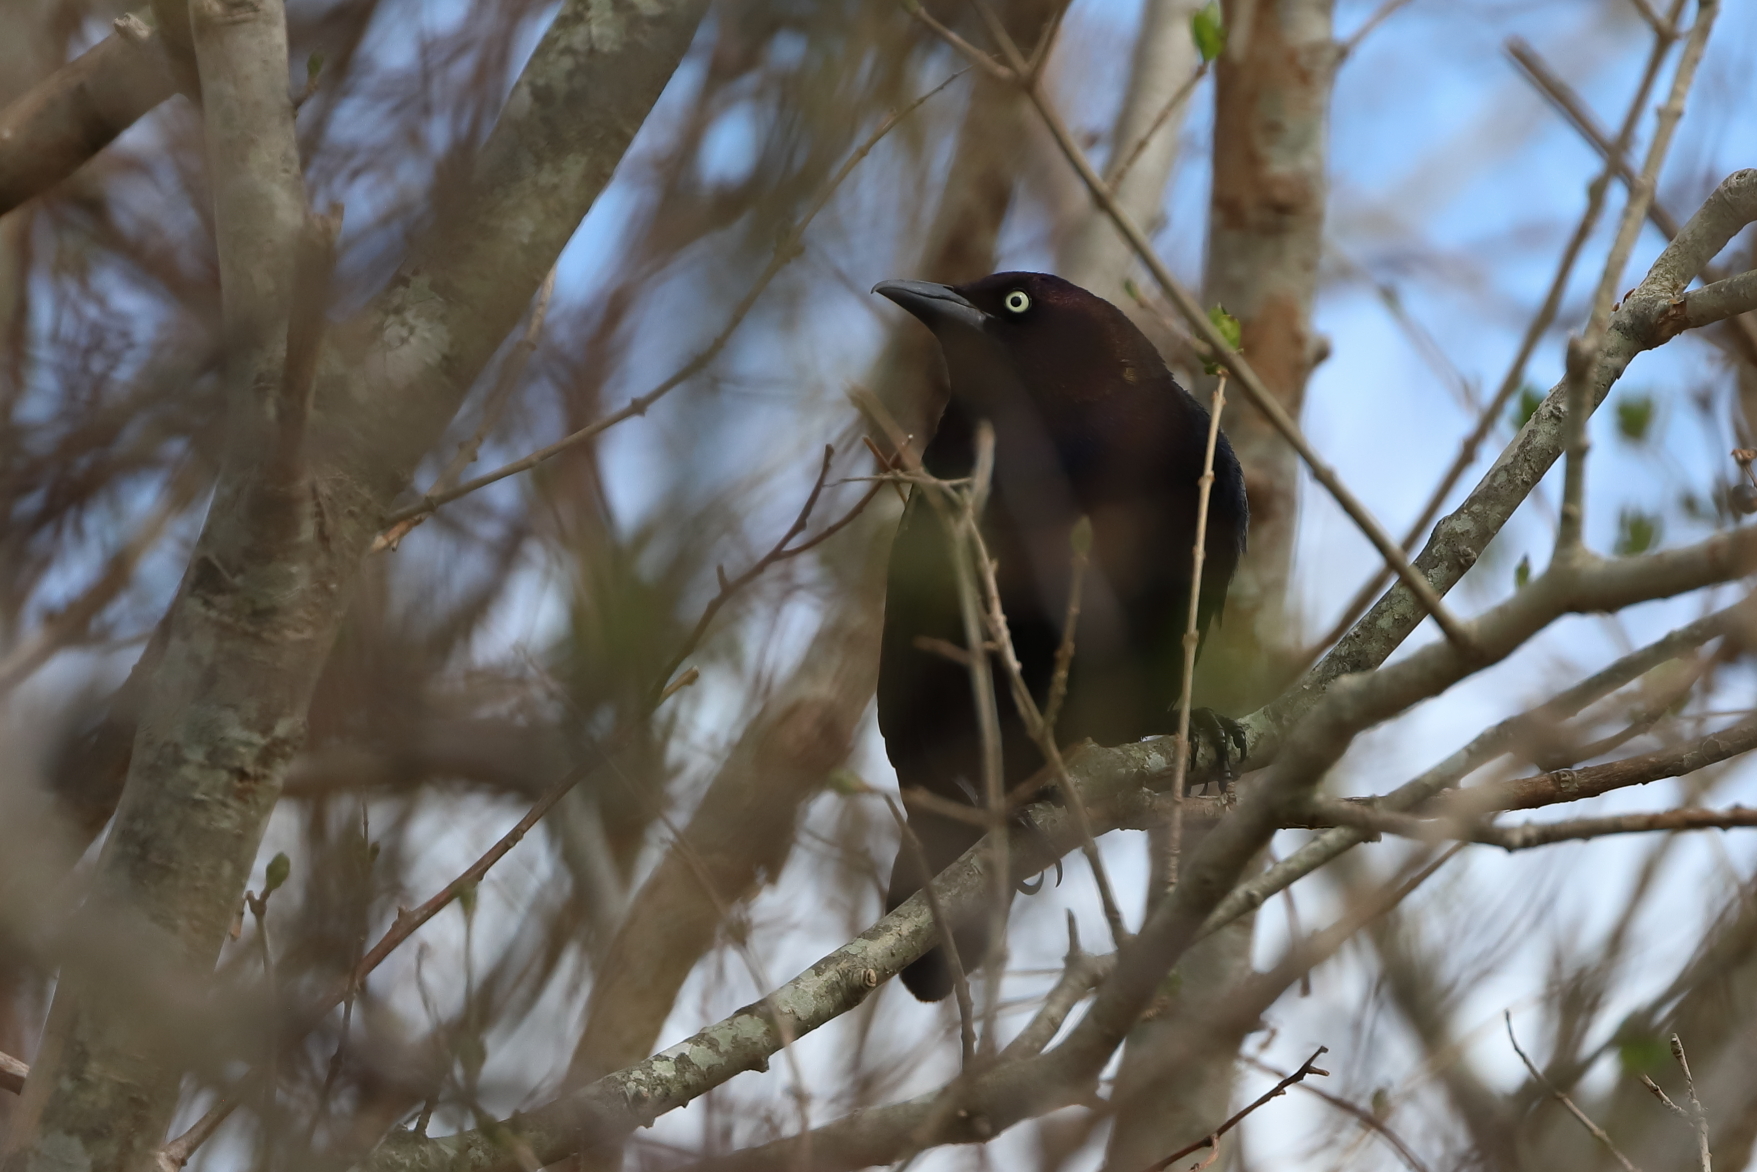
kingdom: Animalia
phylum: Chordata
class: Aves
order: Passeriformes
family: Icteridae
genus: Quiscalus
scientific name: Quiscalus quiscula
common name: Common grackle
